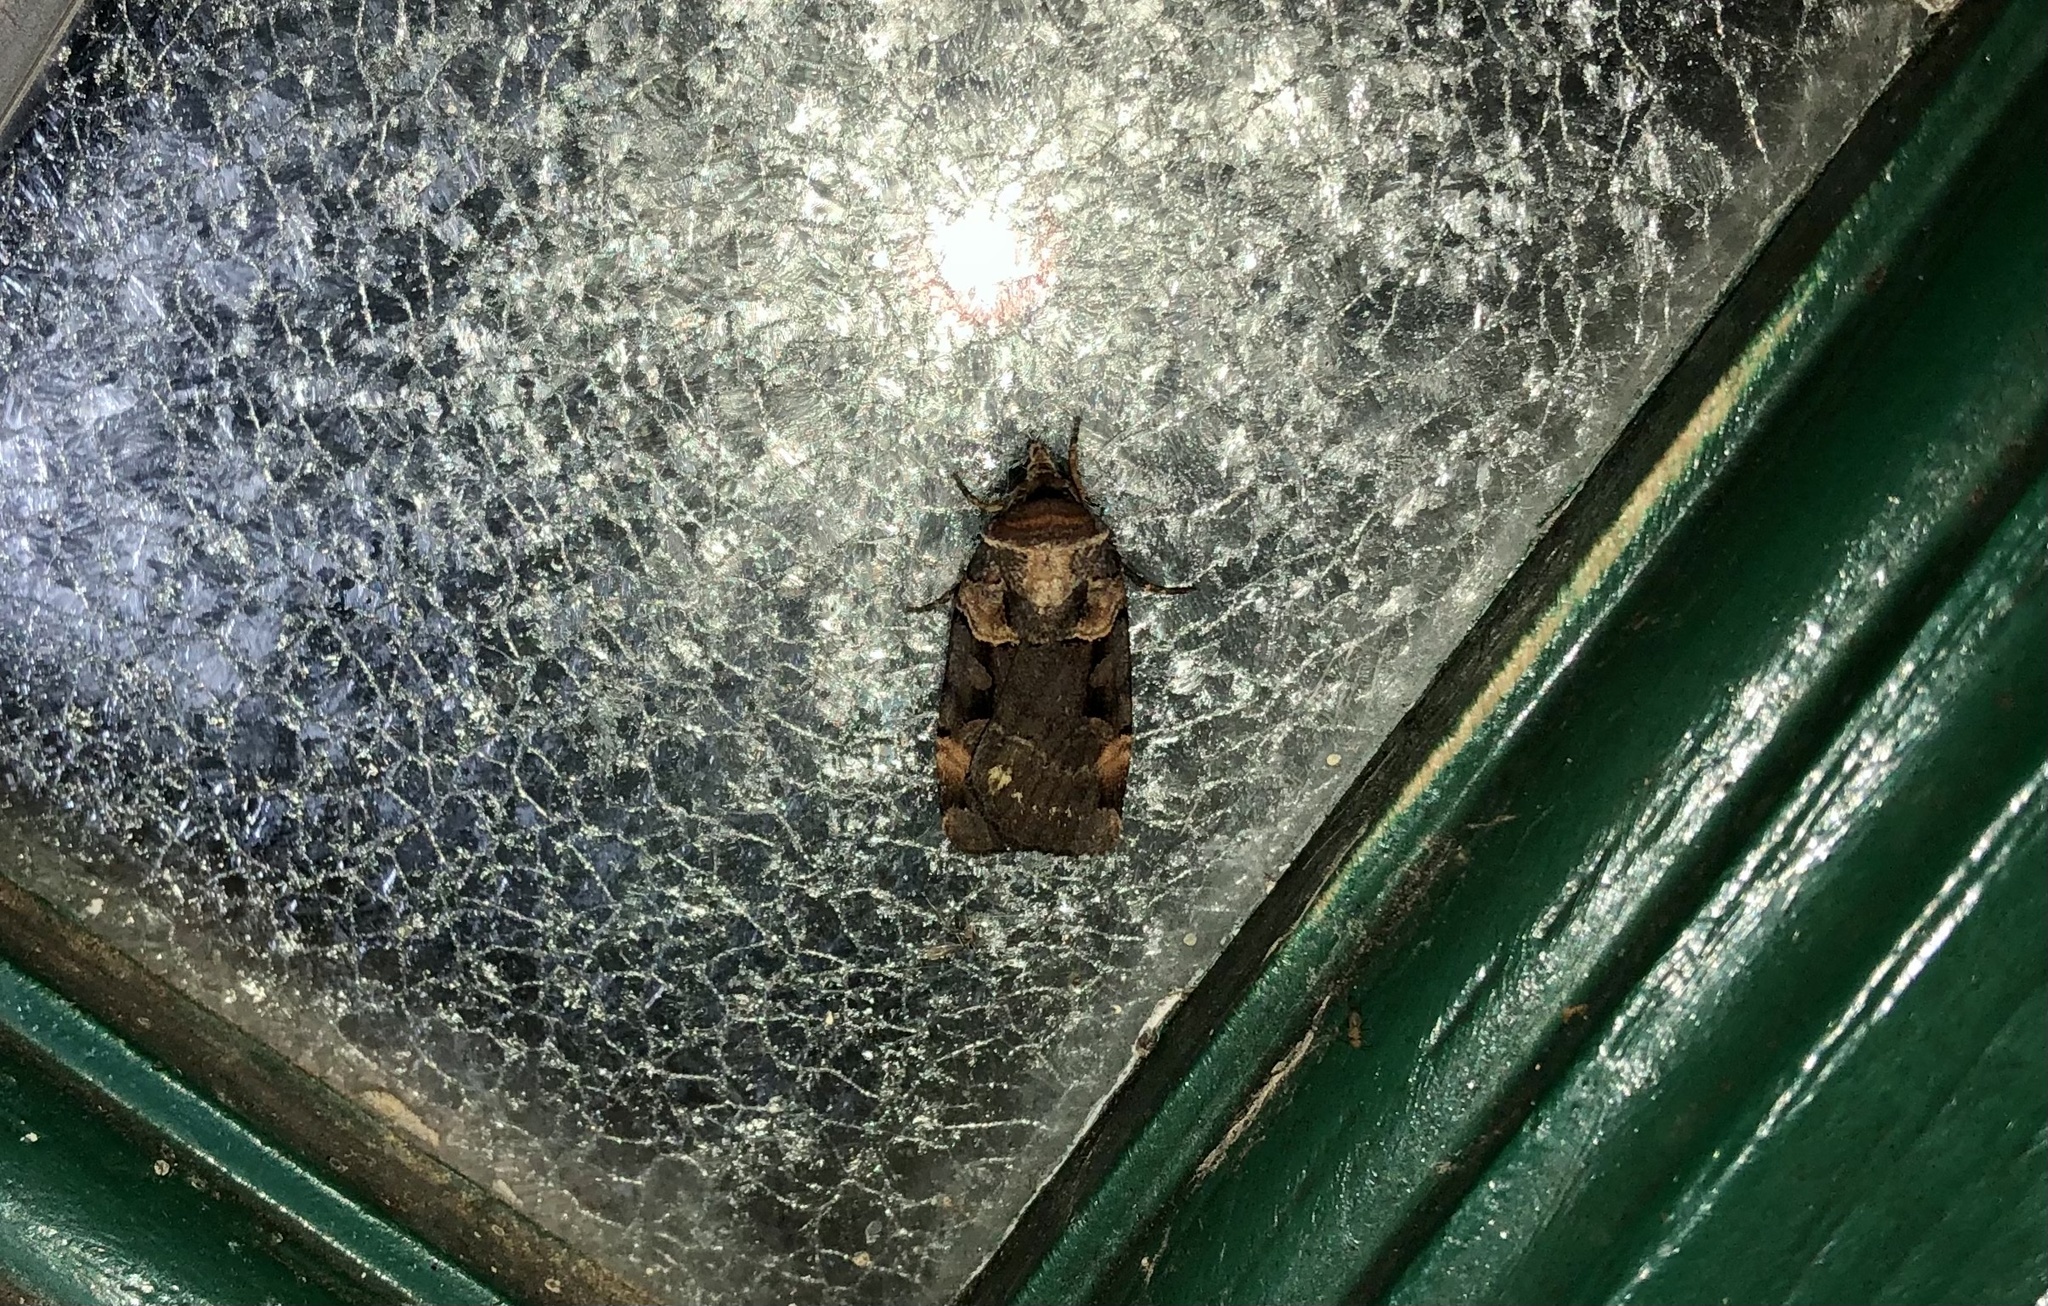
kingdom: Animalia
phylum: Arthropoda
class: Insecta
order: Lepidoptera
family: Noctuidae
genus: Pseudohermonassa
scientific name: Pseudohermonassa bicarnea
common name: Pink spotted dart
